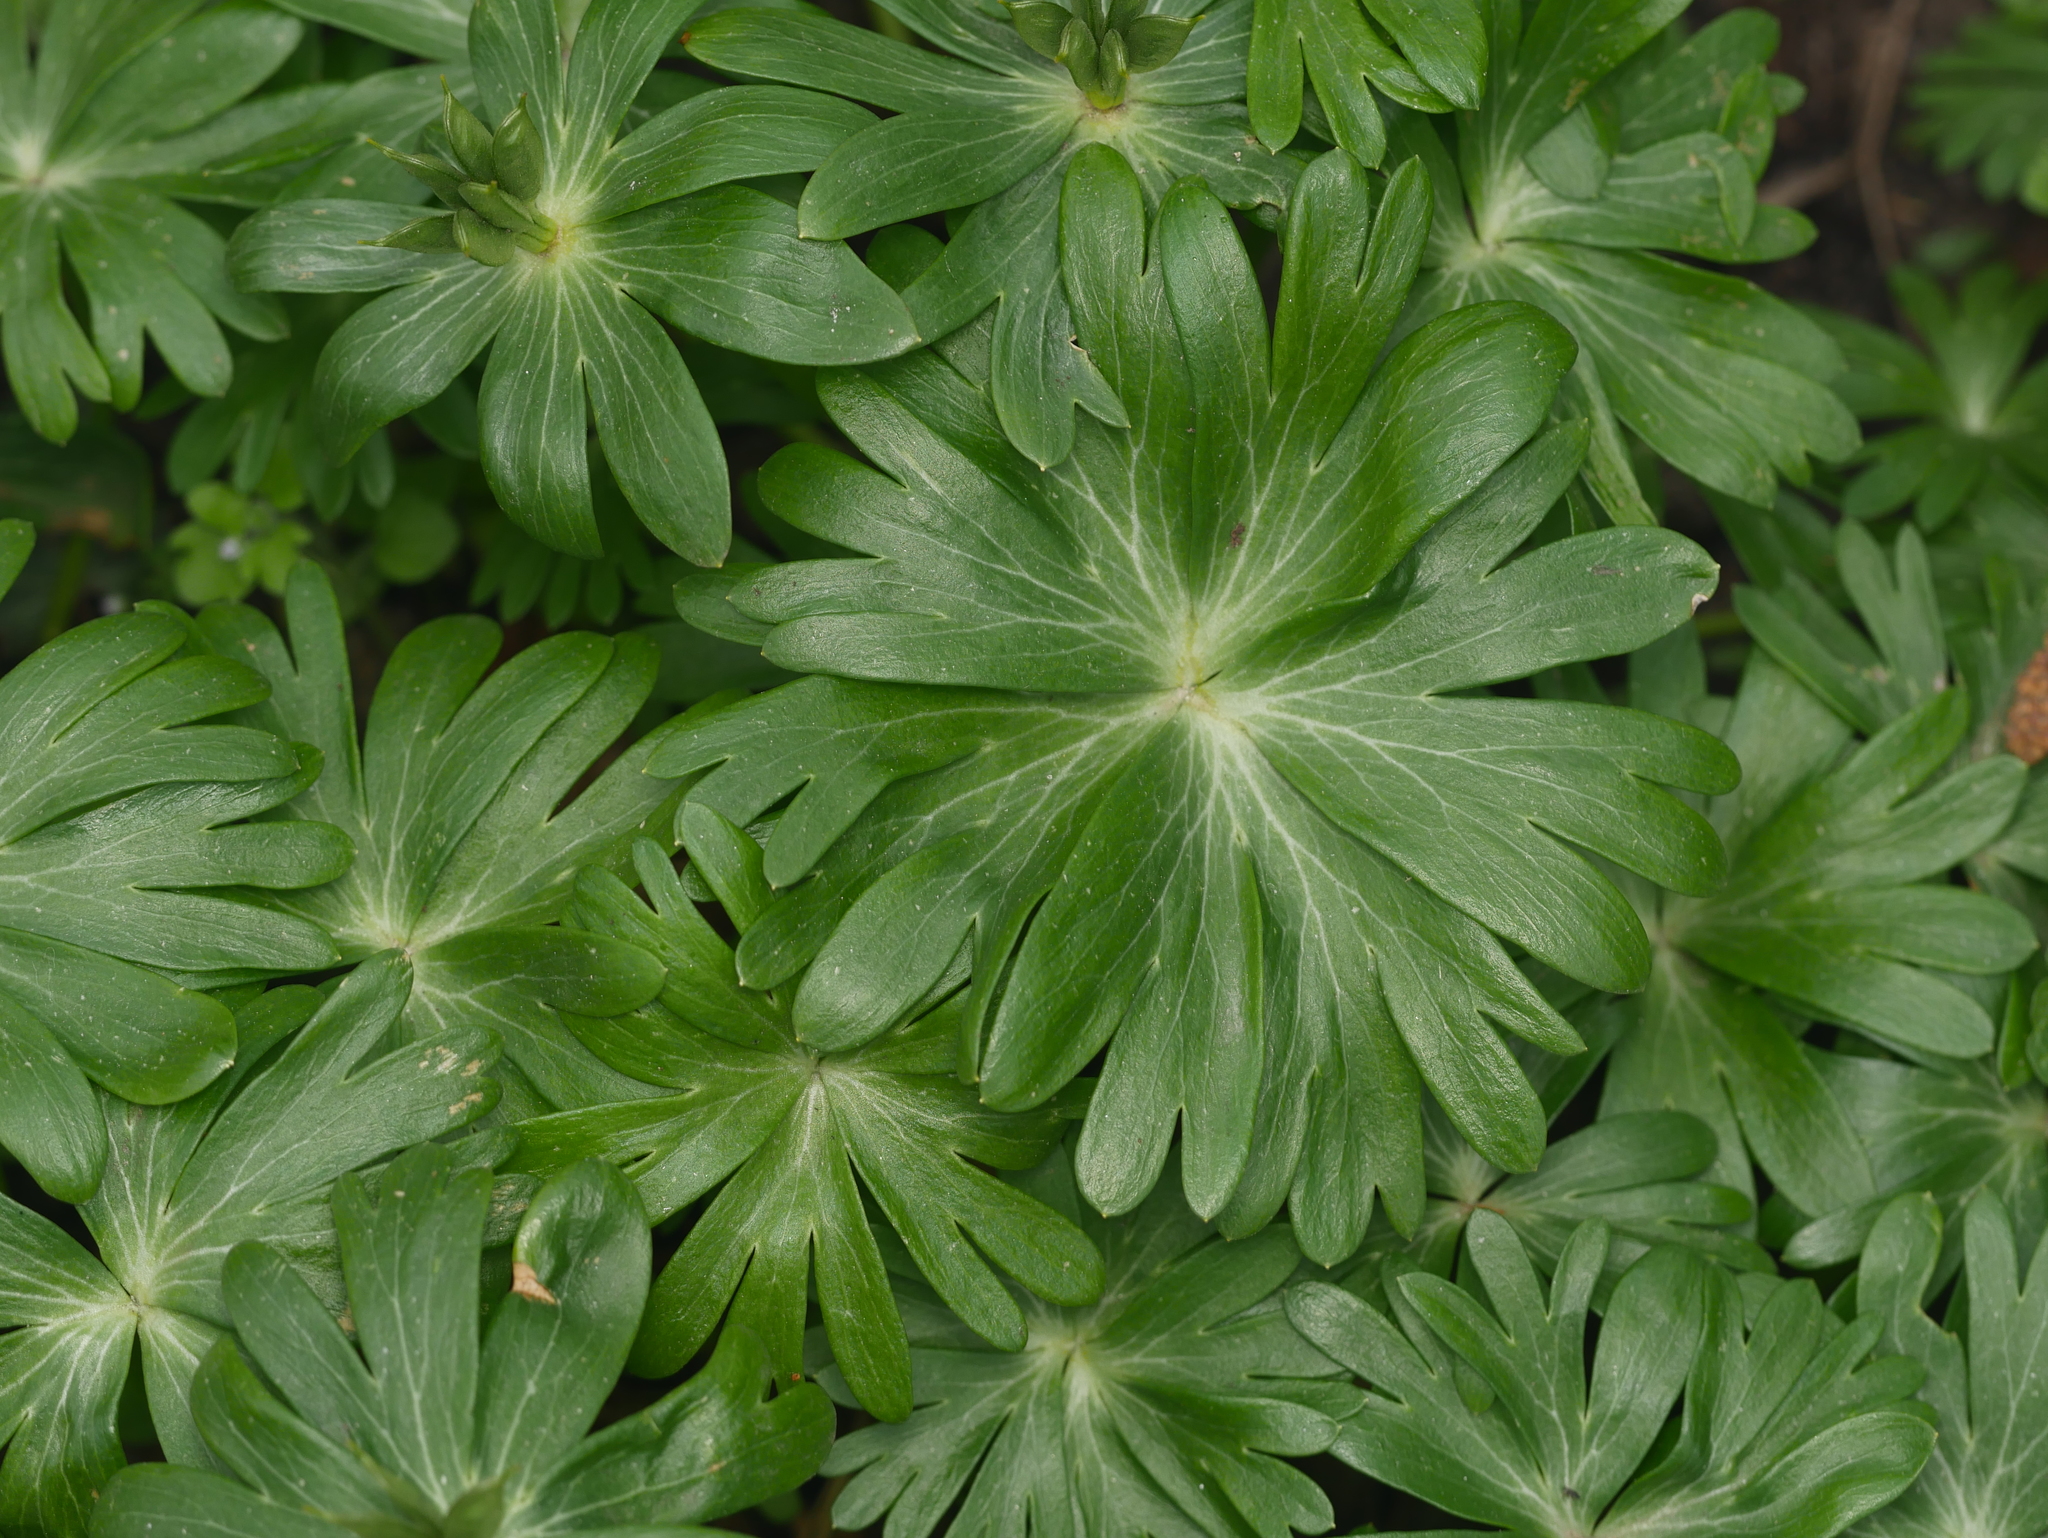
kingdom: Plantae
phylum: Tracheophyta
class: Magnoliopsida
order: Ranunculales
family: Ranunculaceae
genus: Eranthis
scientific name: Eranthis hyemalis
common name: Winter aconite
